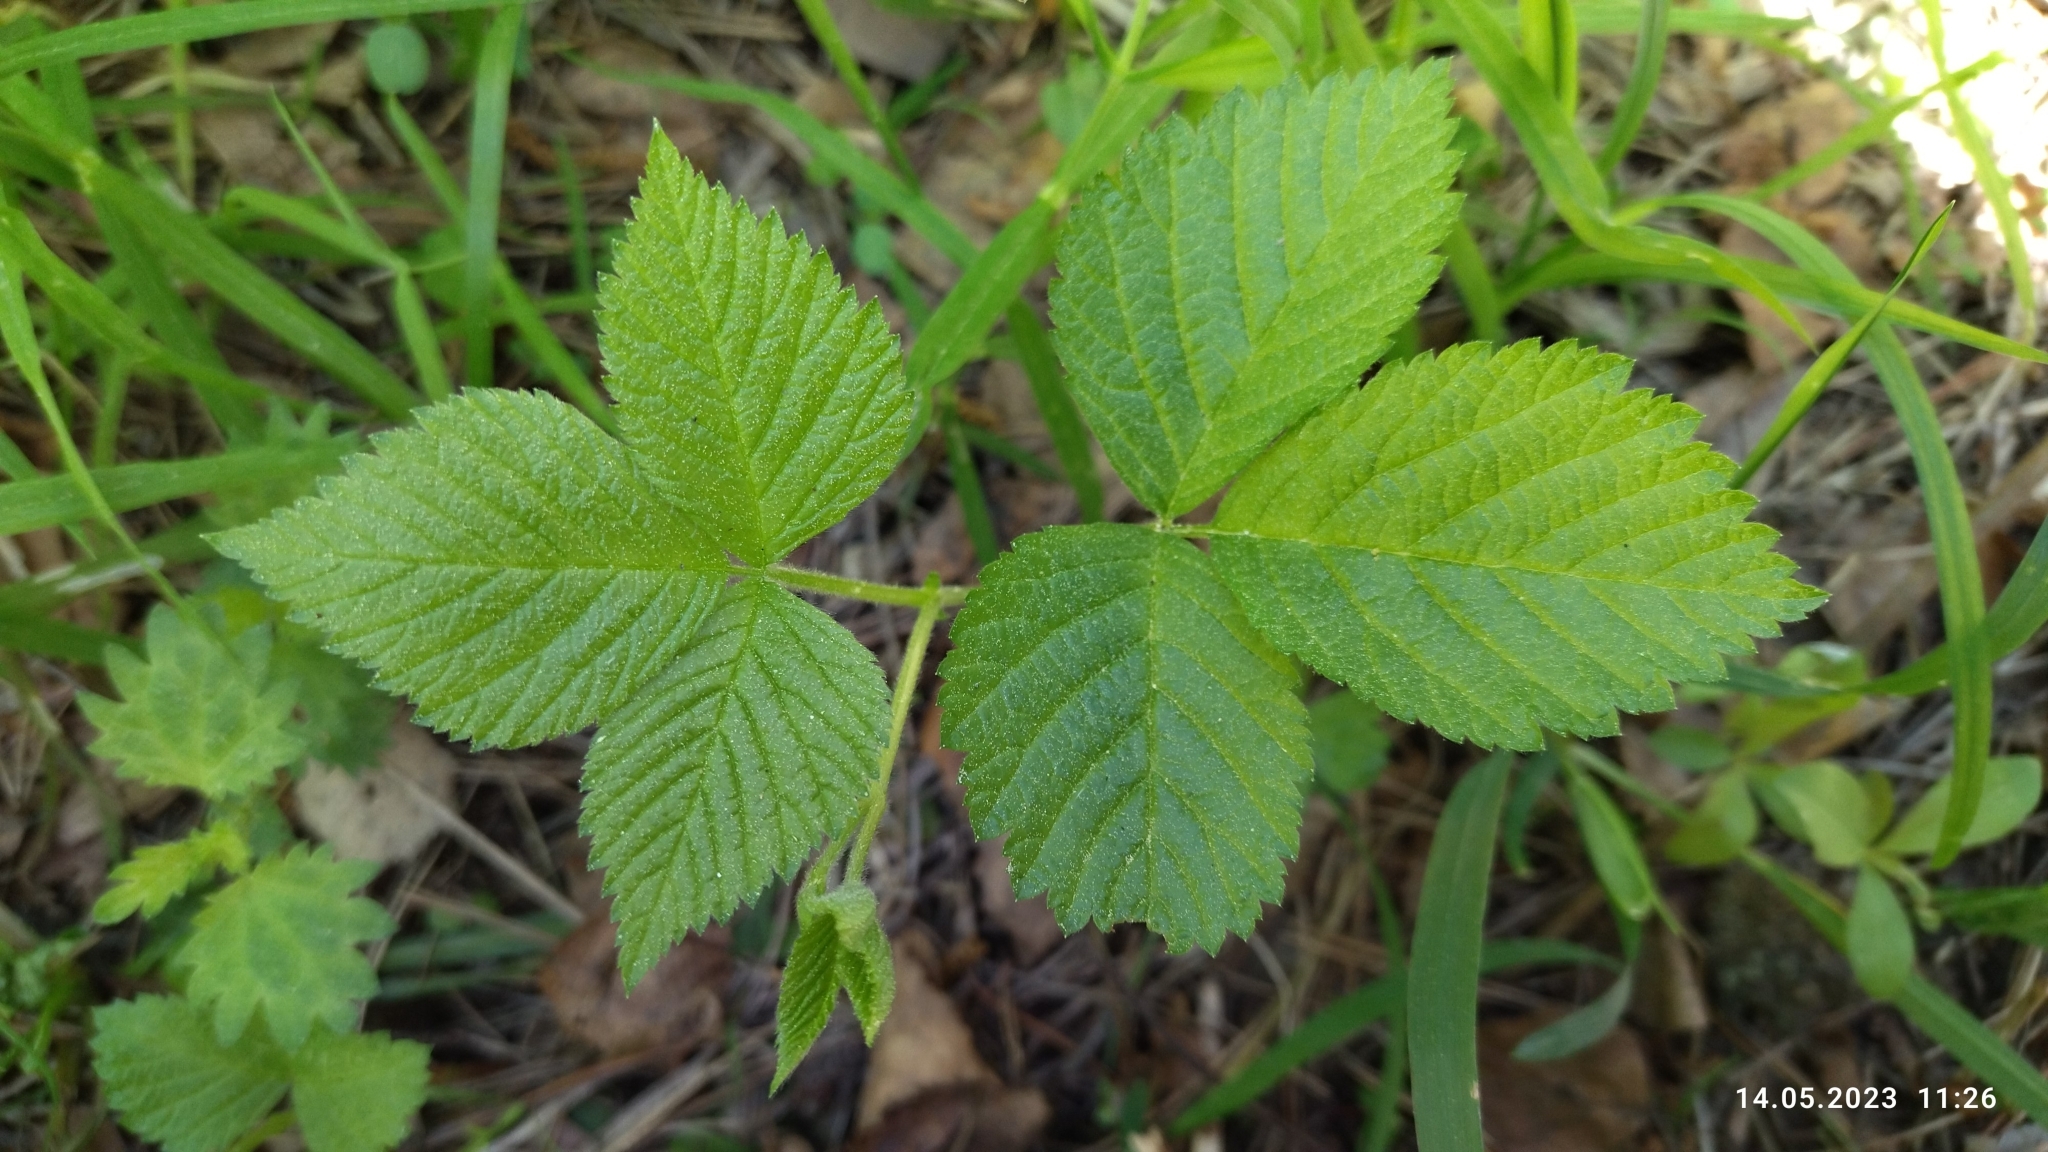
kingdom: Plantae
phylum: Tracheophyta
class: Magnoliopsida
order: Rosales
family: Rosaceae
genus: Rubus
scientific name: Rubus saxatilis
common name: Stone bramble
